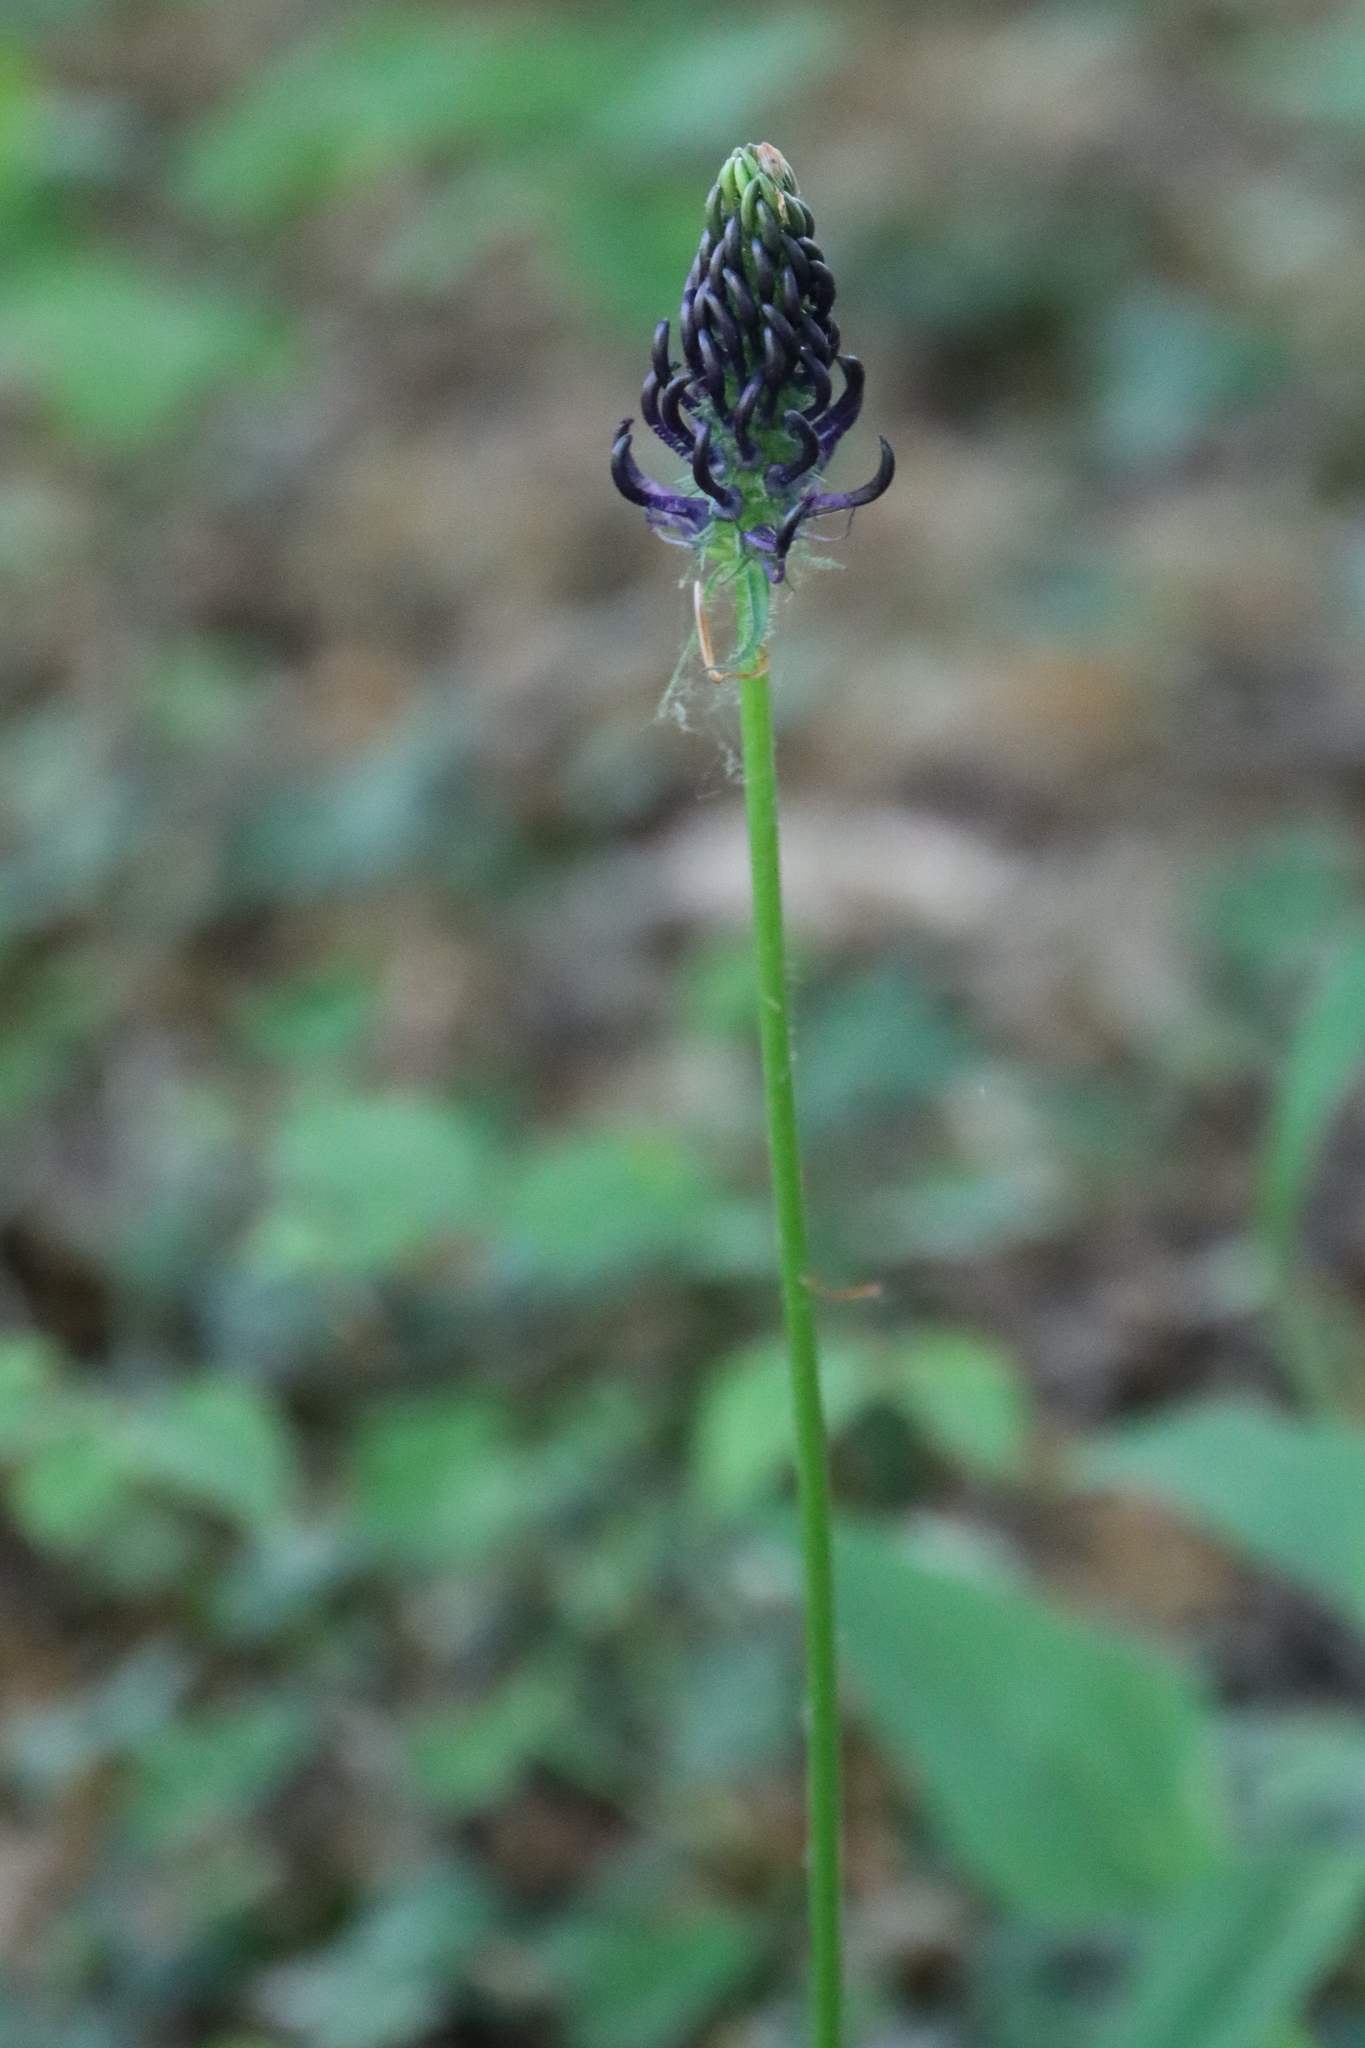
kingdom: Plantae
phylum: Tracheophyta
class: Magnoliopsida
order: Asterales
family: Campanulaceae
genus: Phyteuma
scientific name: Phyteuma nigrum
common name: Black rampion
